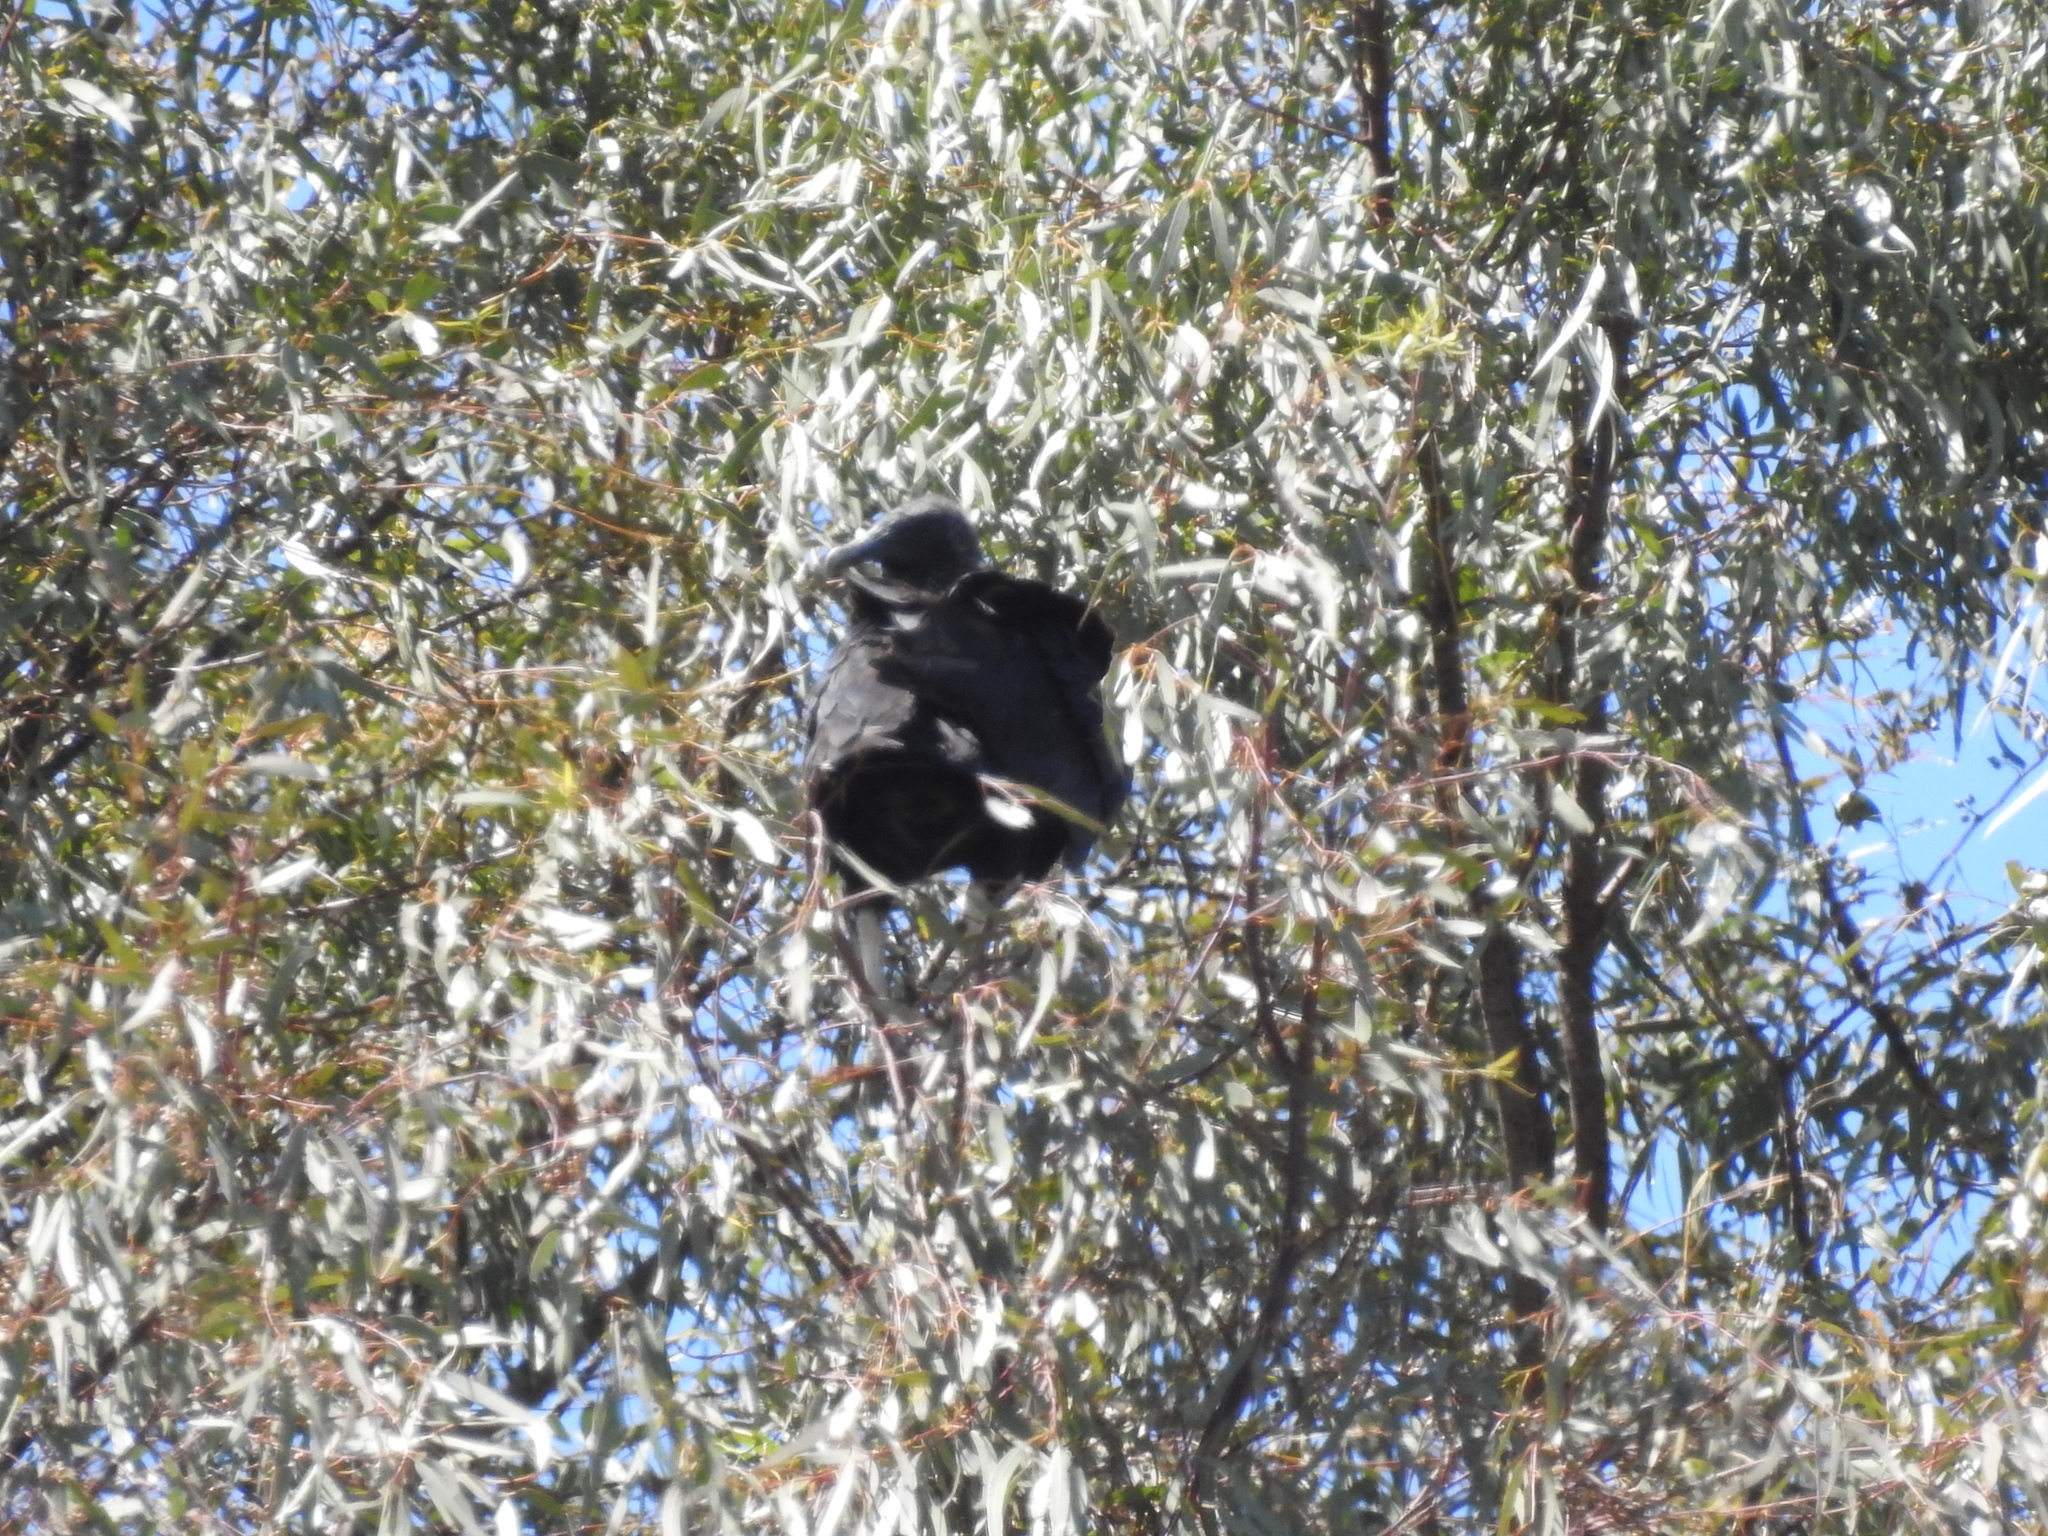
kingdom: Animalia
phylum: Chordata
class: Aves
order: Accipitriformes
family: Cathartidae
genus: Coragyps
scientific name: Coragyps atratus
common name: Black vulture
